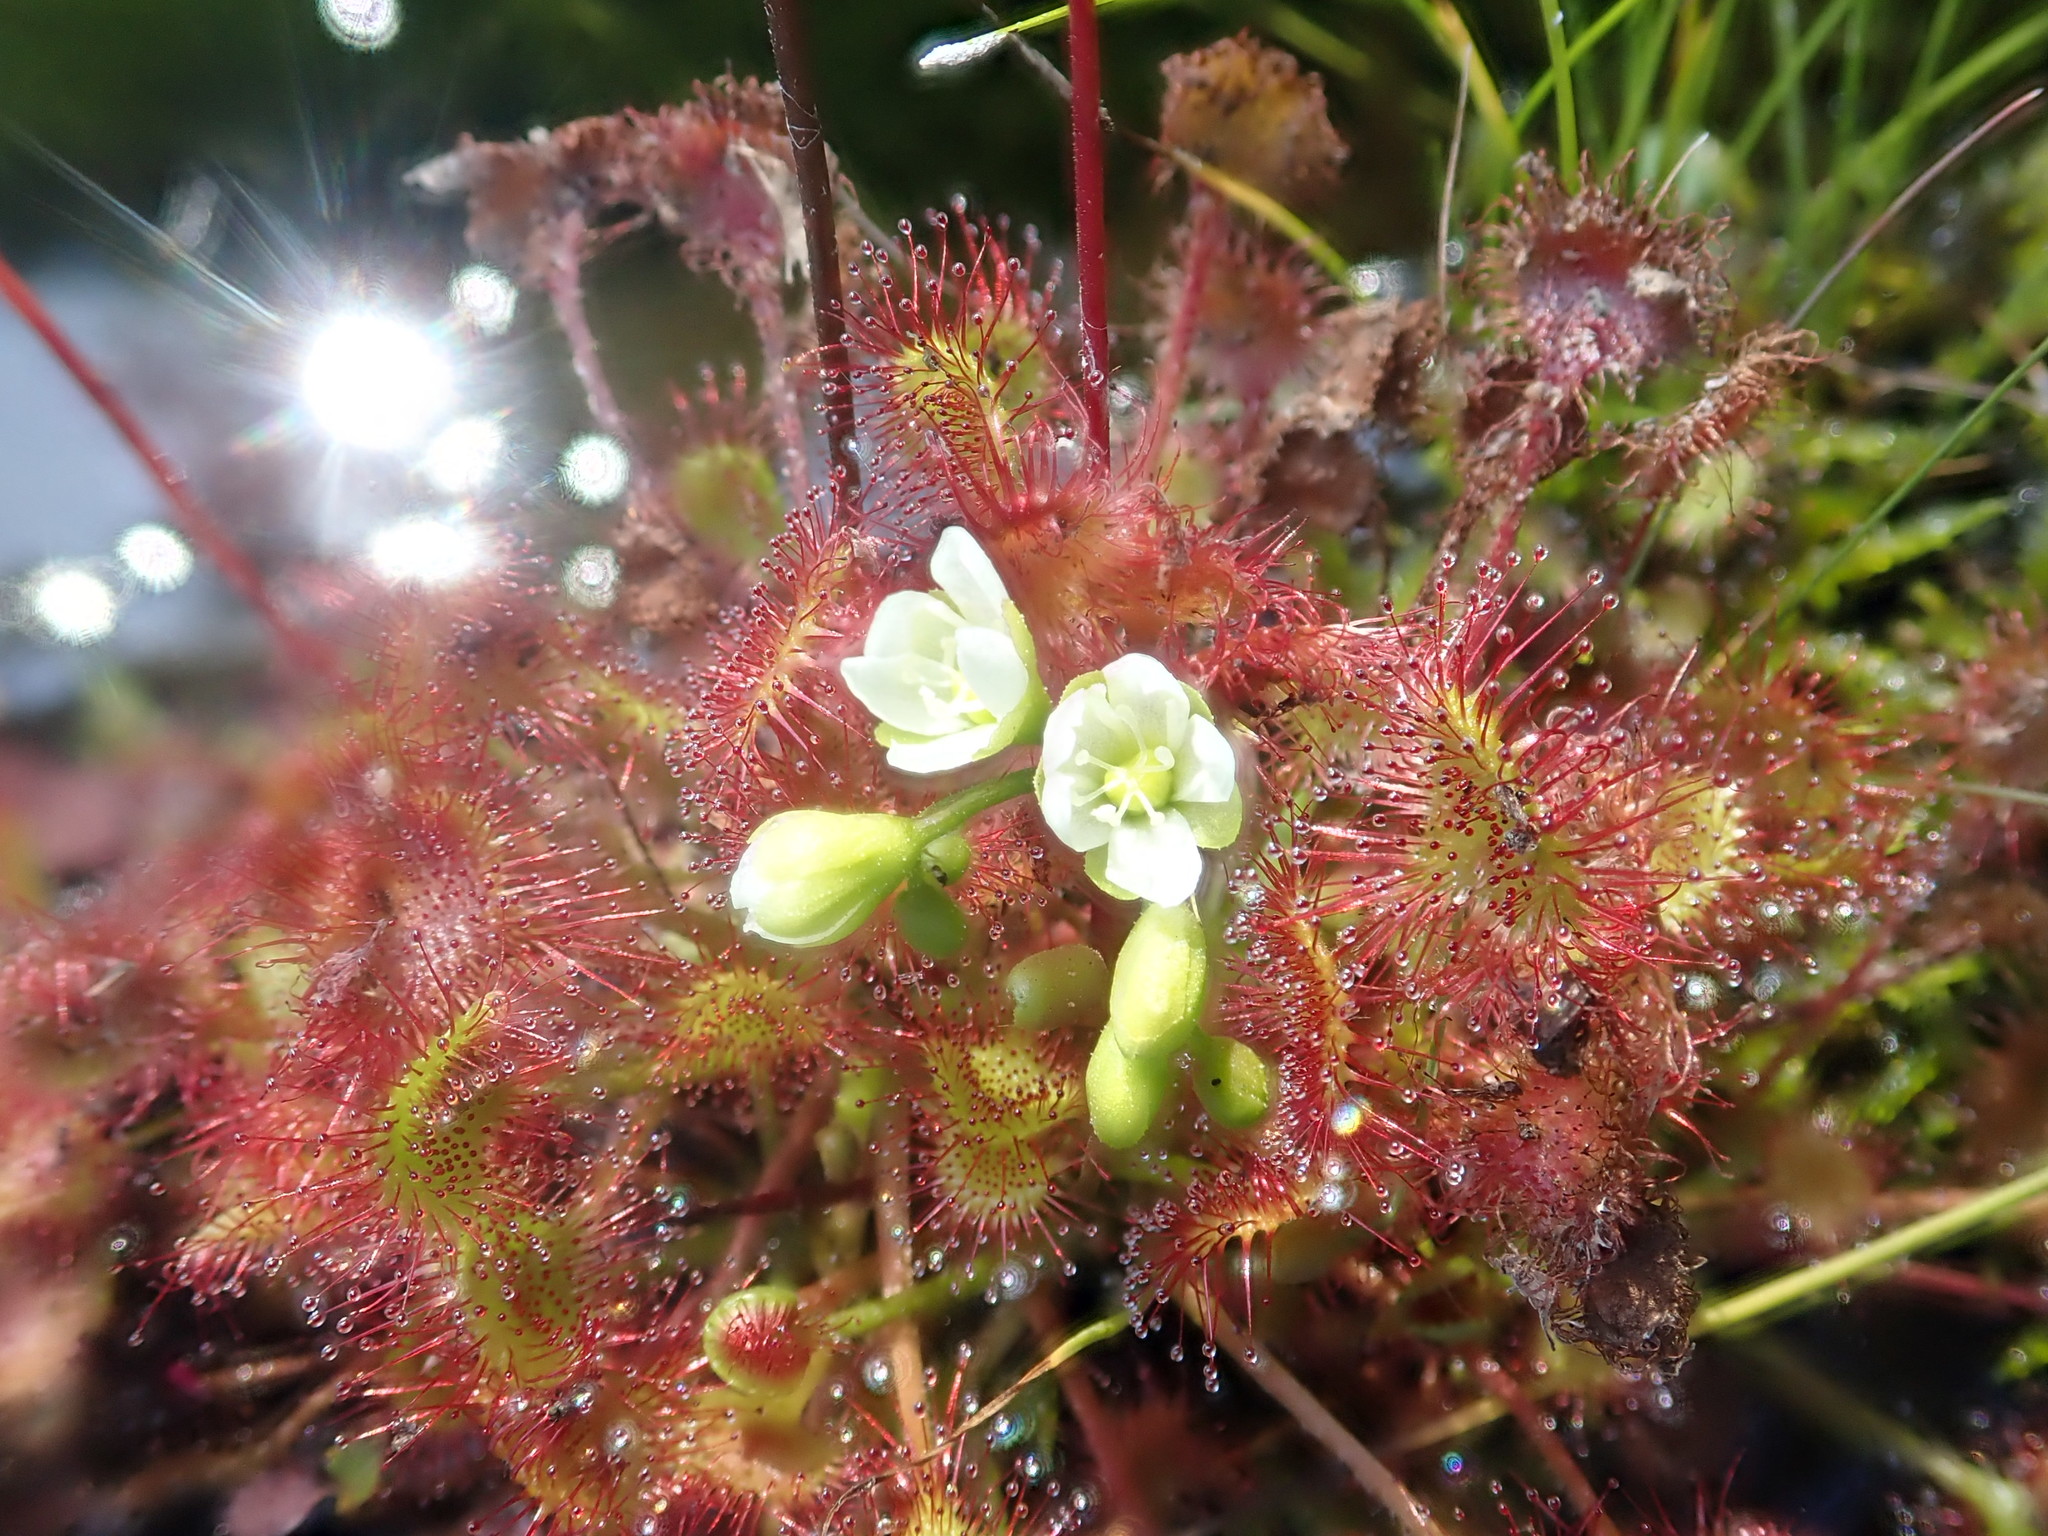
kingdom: Plantae
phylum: Tracheophyta
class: Magnoliopsida
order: Caryophyllales
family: Droseraceae
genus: Drosera
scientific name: Drosera rotundifolia
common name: Round-leaved sundew
